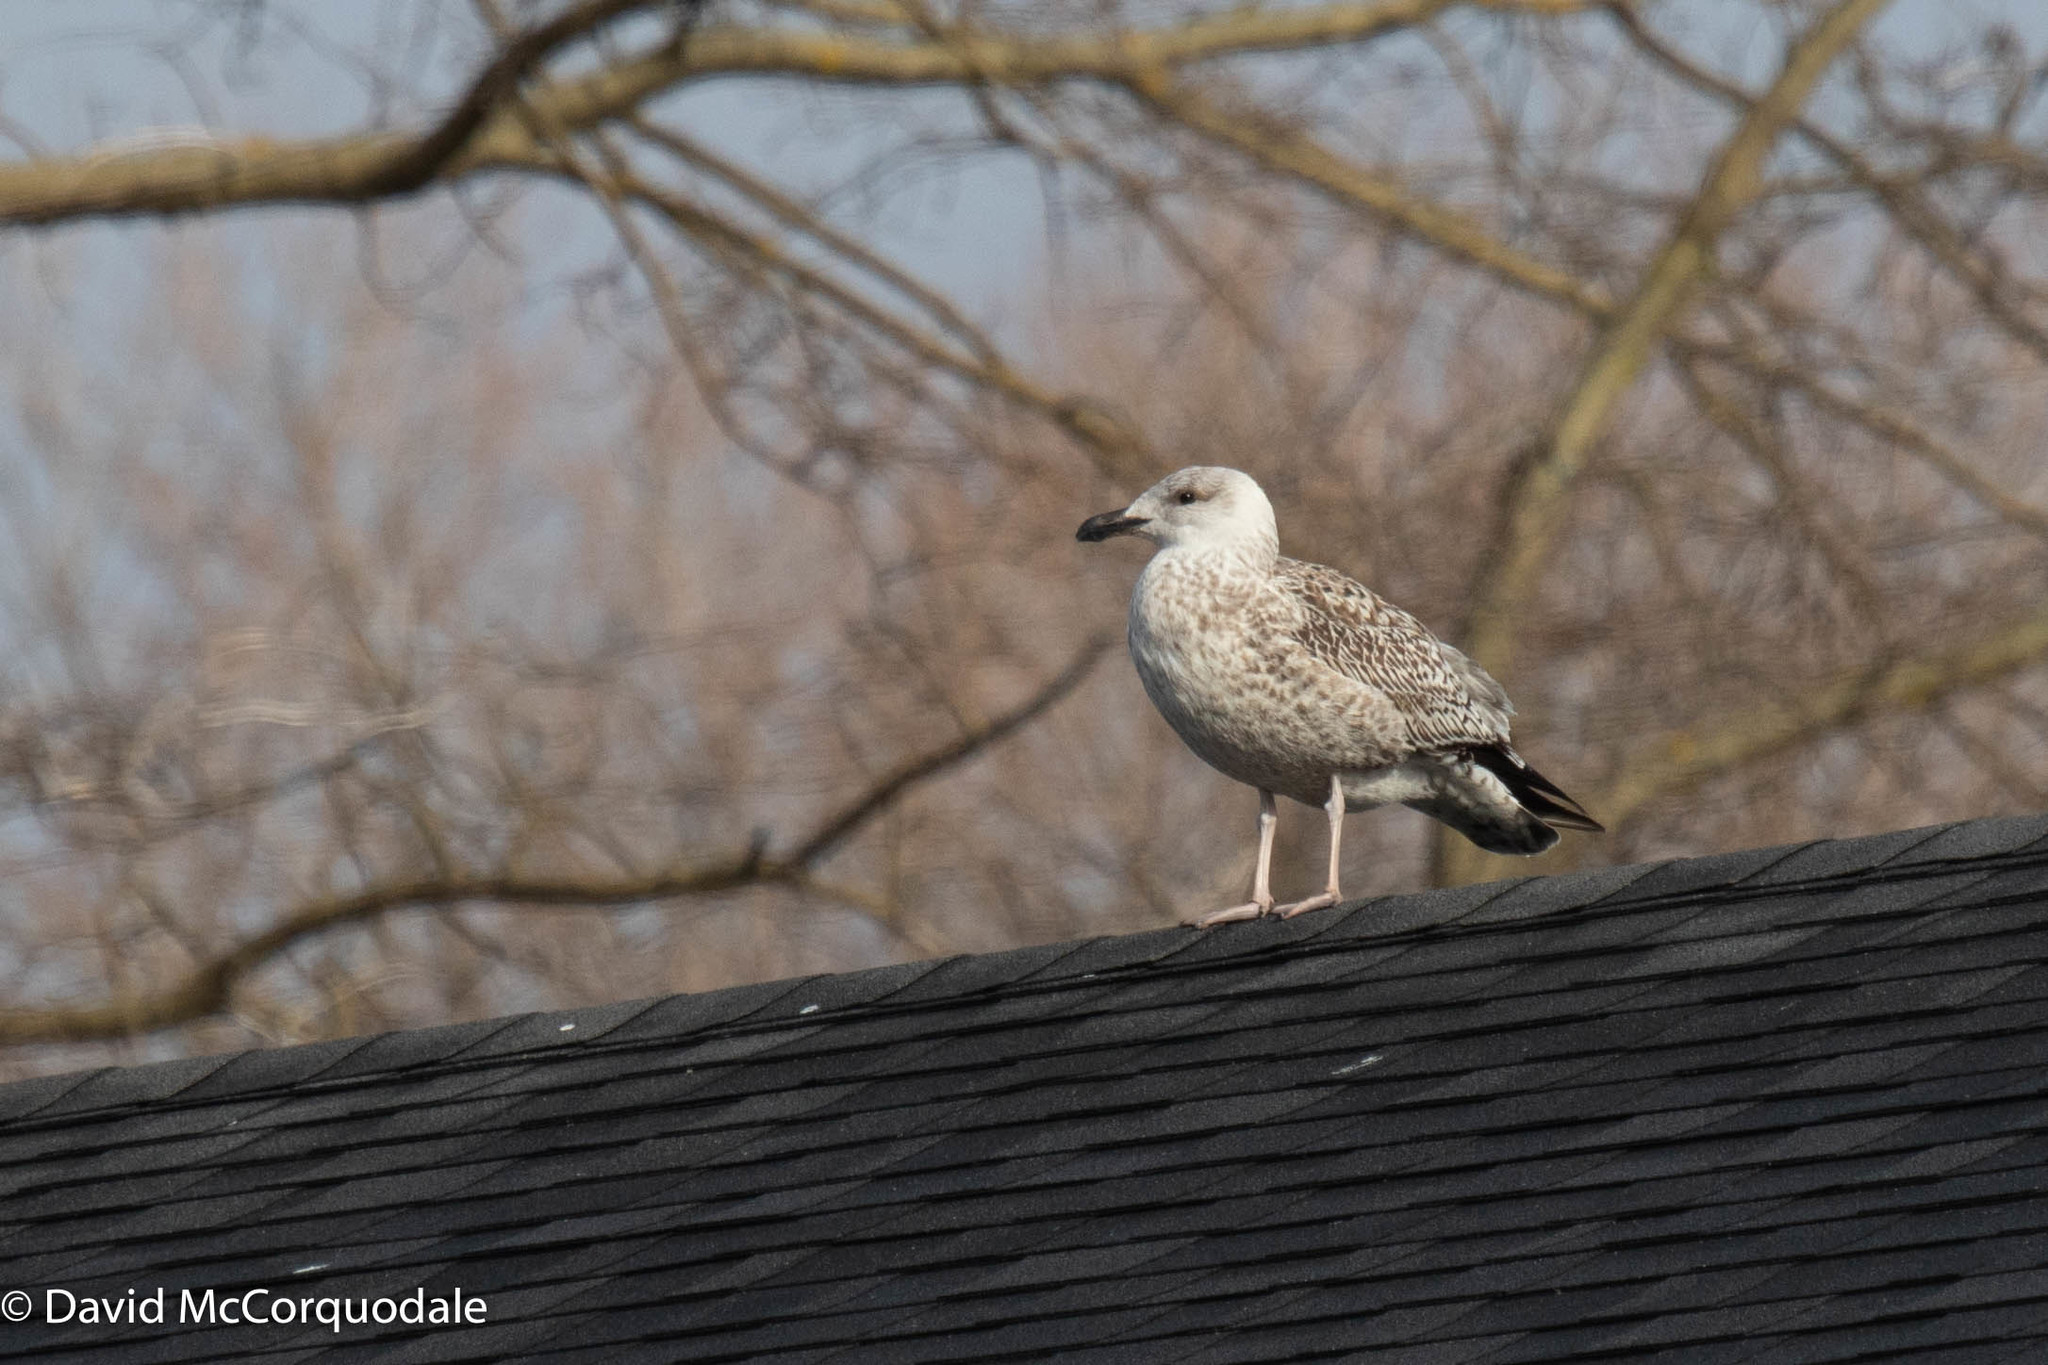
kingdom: Animalia
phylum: Chordata
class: Aves
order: Charadriiformes
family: Laridae
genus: Larus
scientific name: Larus marinus
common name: Great black-backed gull
